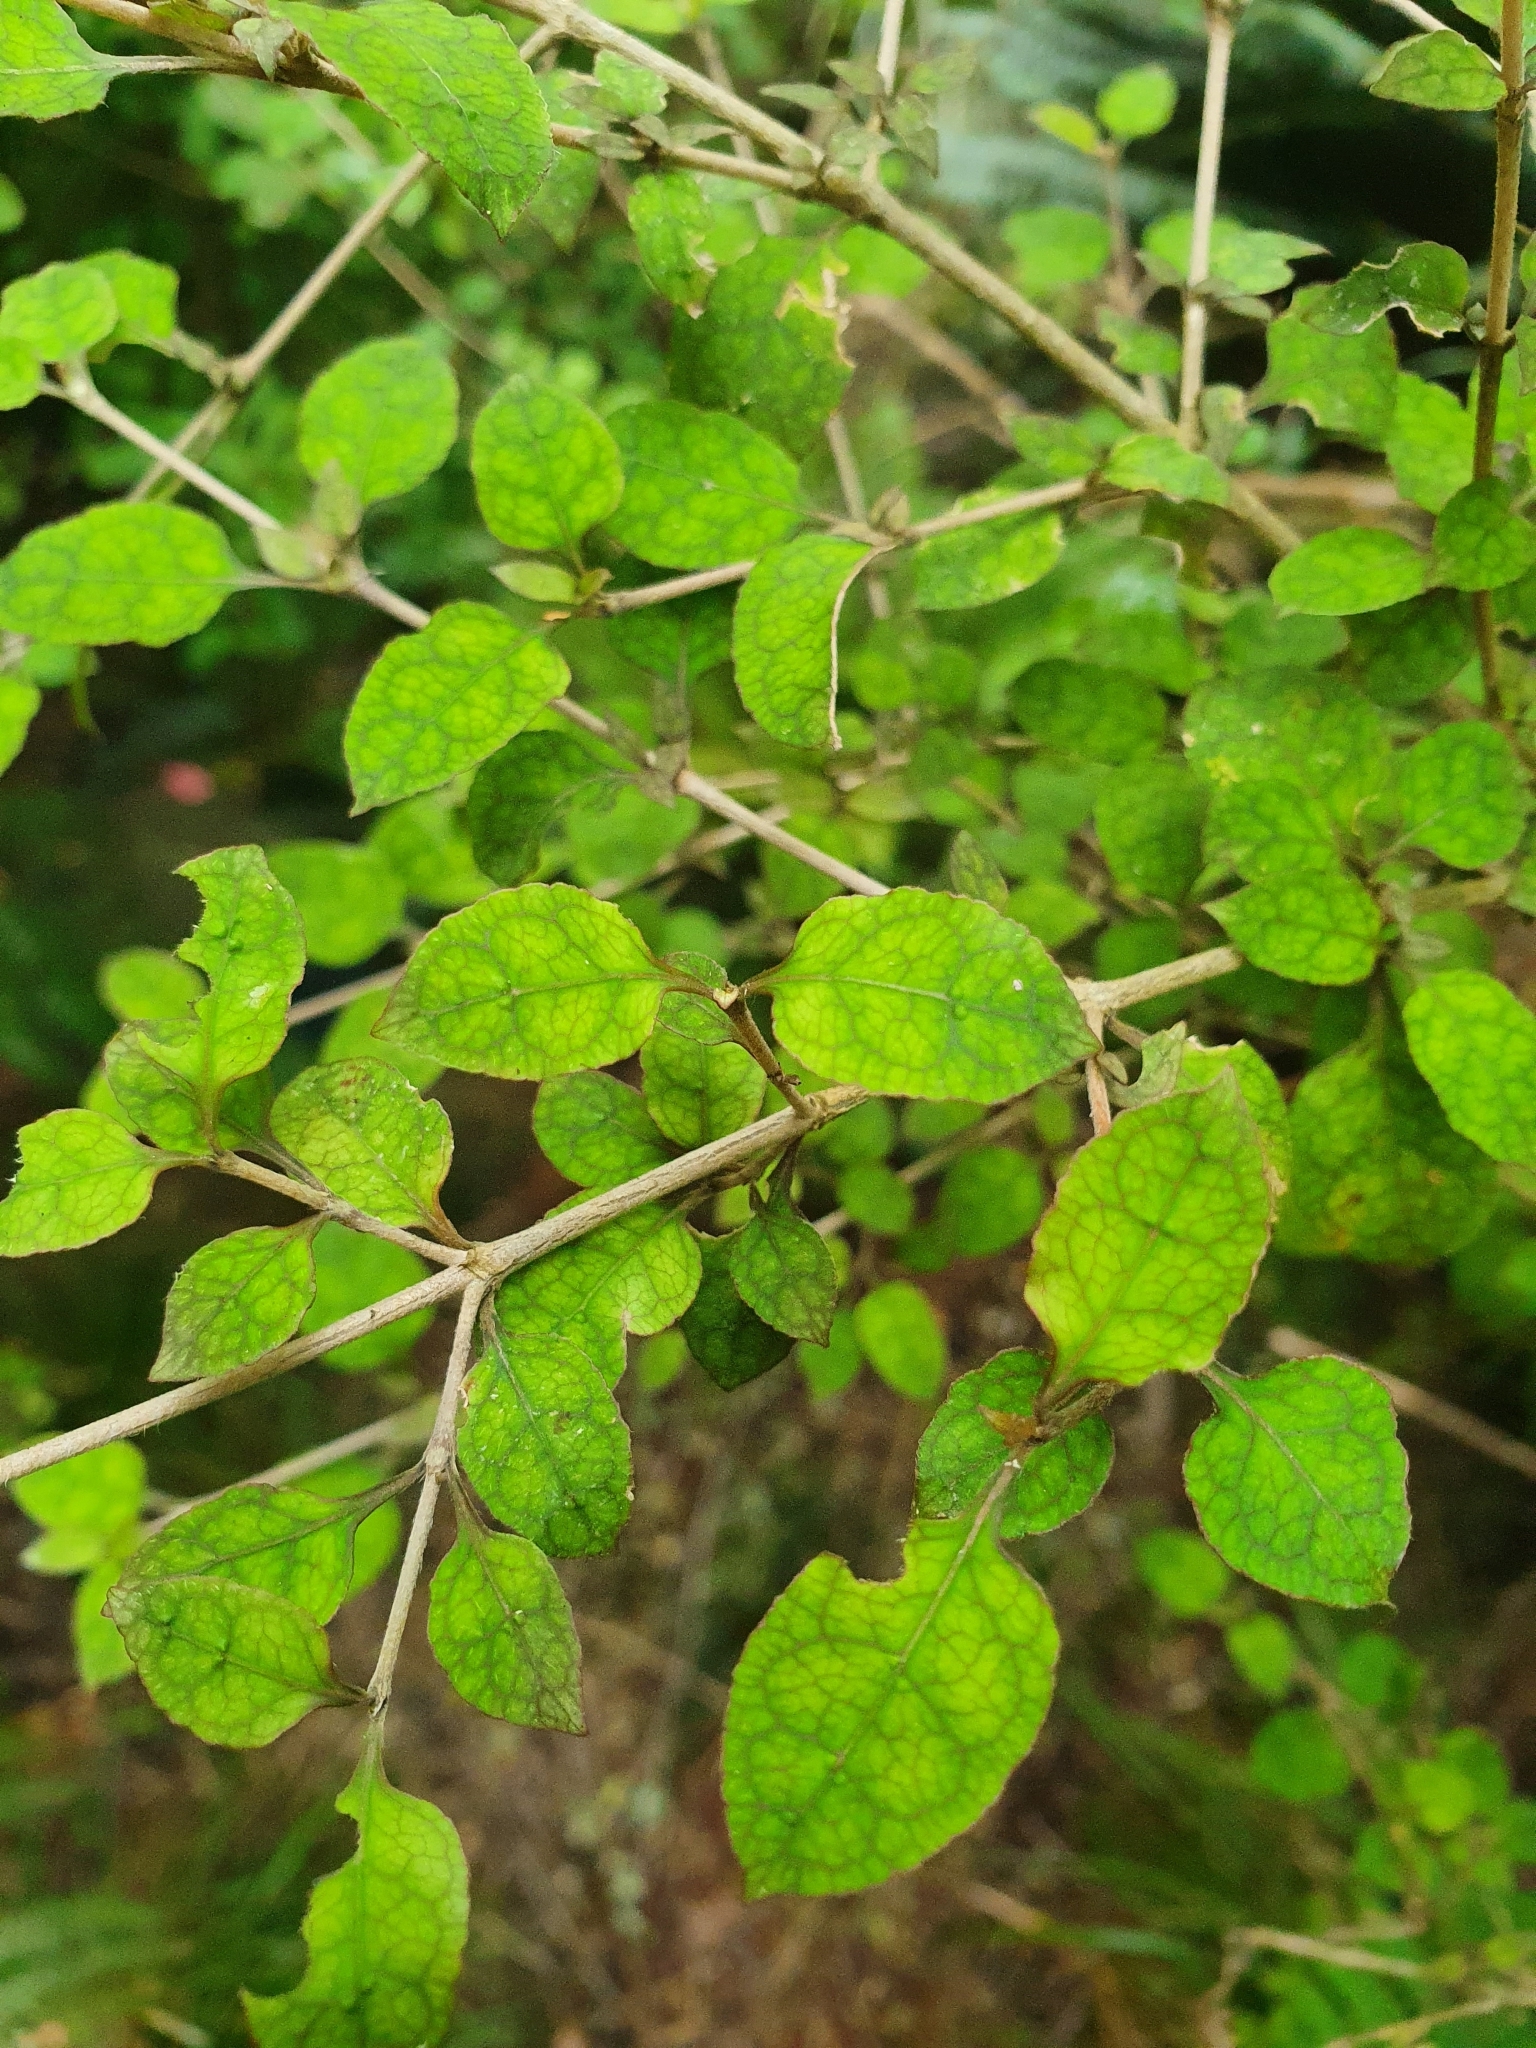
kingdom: Plantae
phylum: Tracheophyta
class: Magnoliopsida
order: Gentianales
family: Rubiaceae
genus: Coprosma
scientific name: Coprosma areolata
